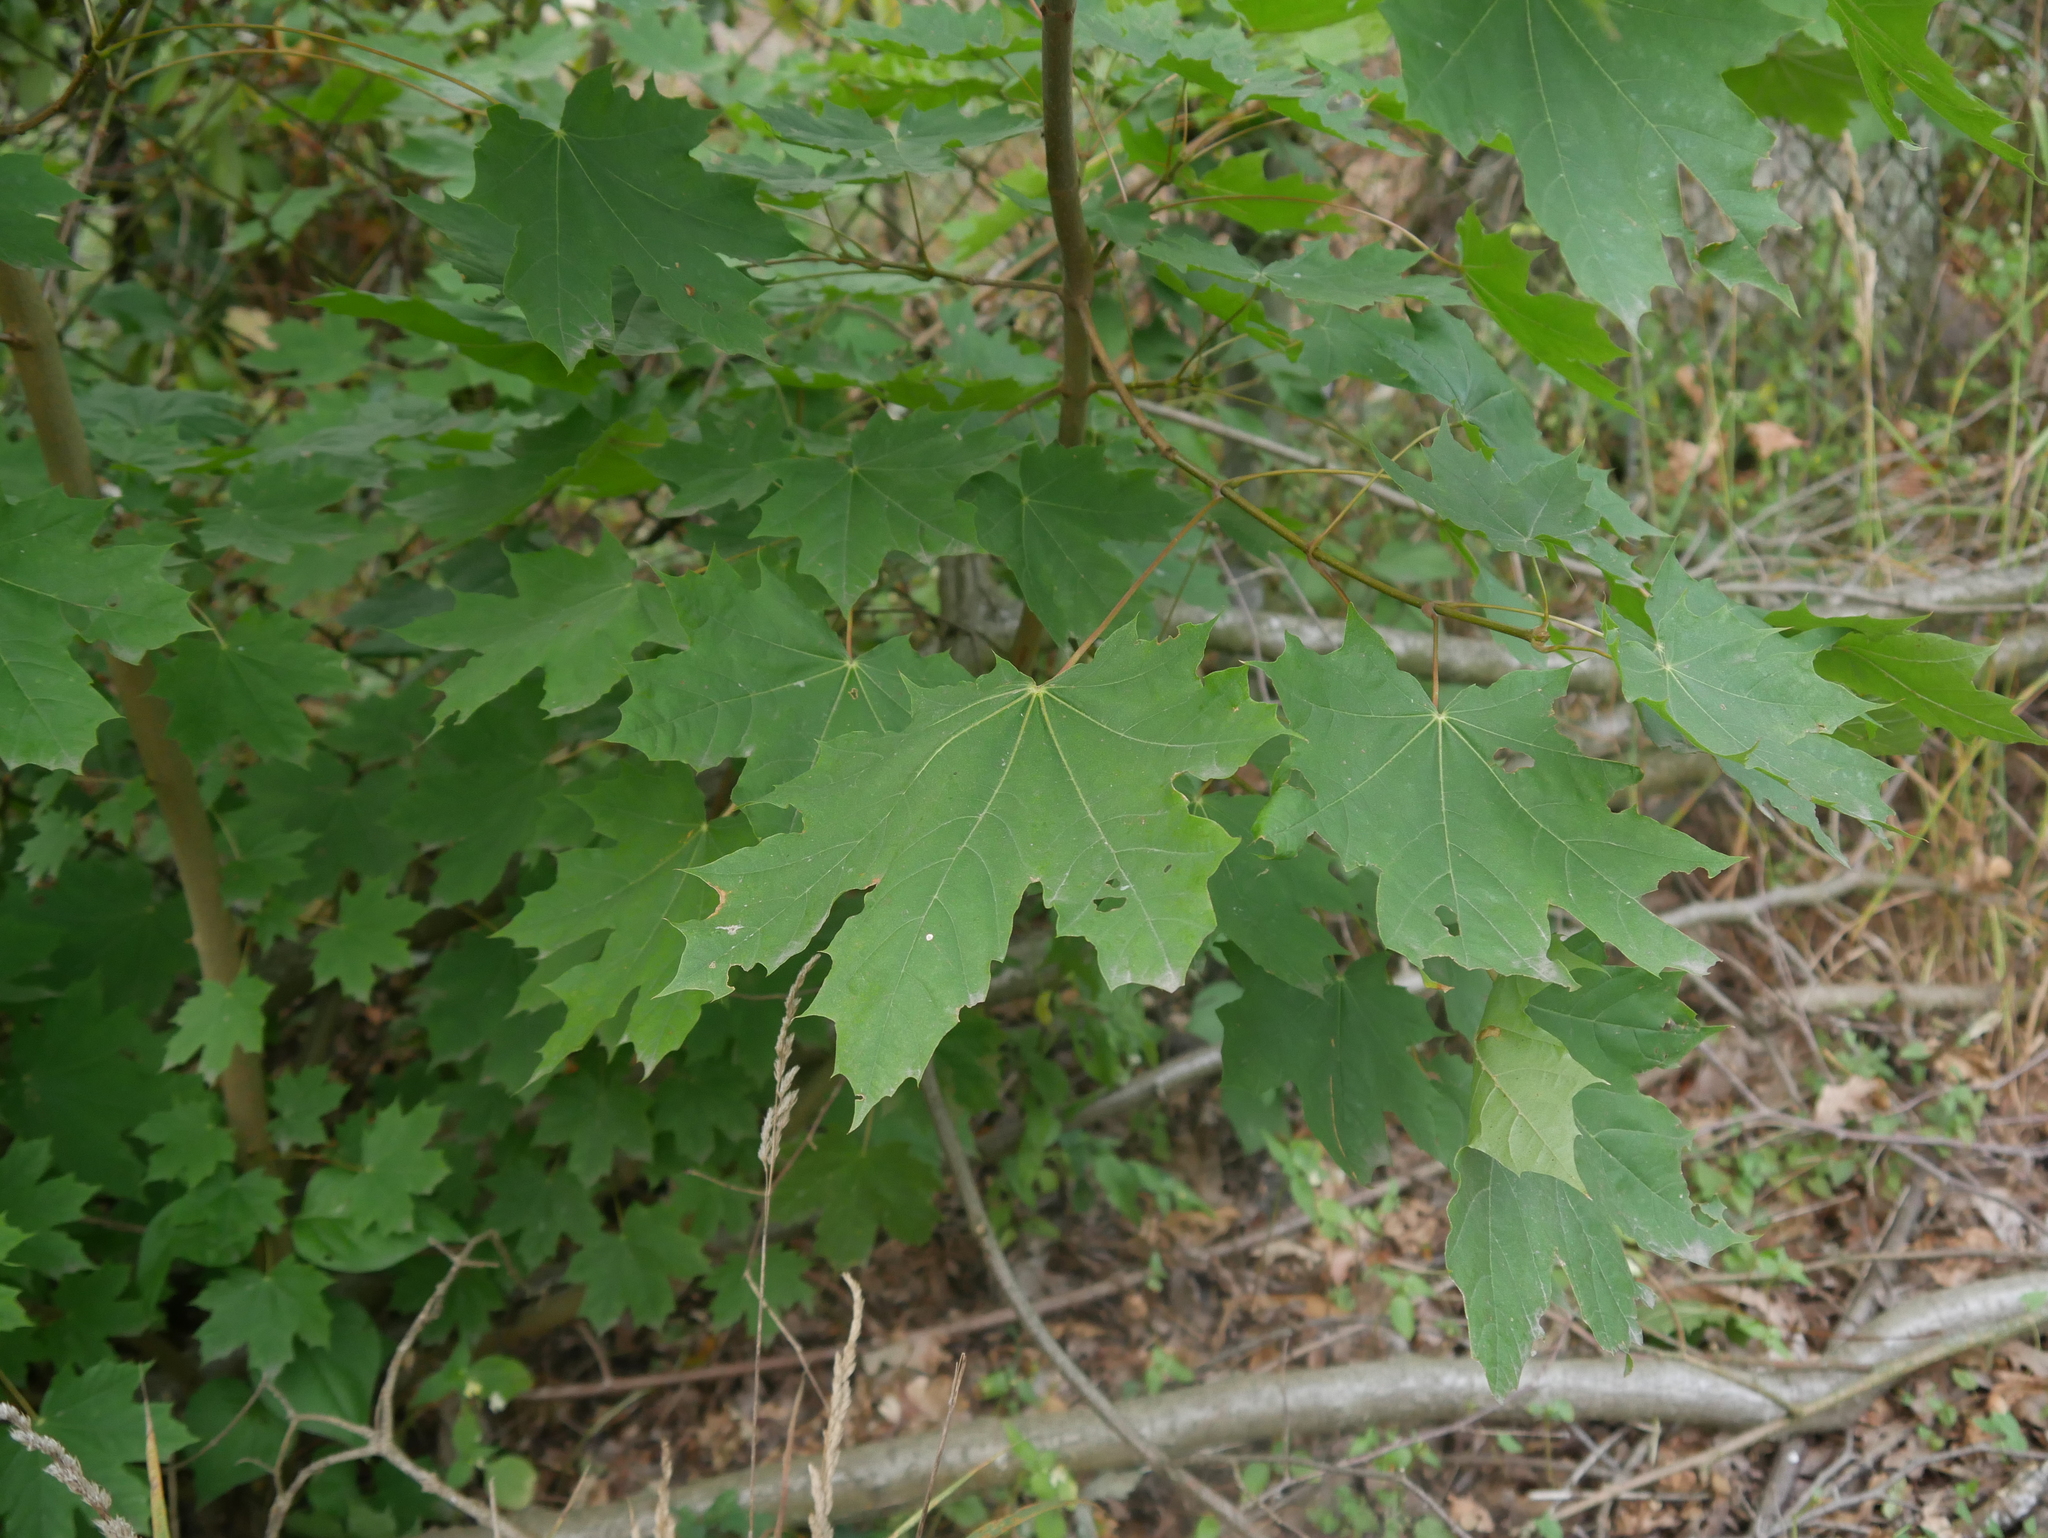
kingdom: Plantae
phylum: Tracheophyta
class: Magnoliopsida
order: Sapindales
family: Sapindaceae
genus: Acer
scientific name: Acer platanoides
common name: Norway maple
